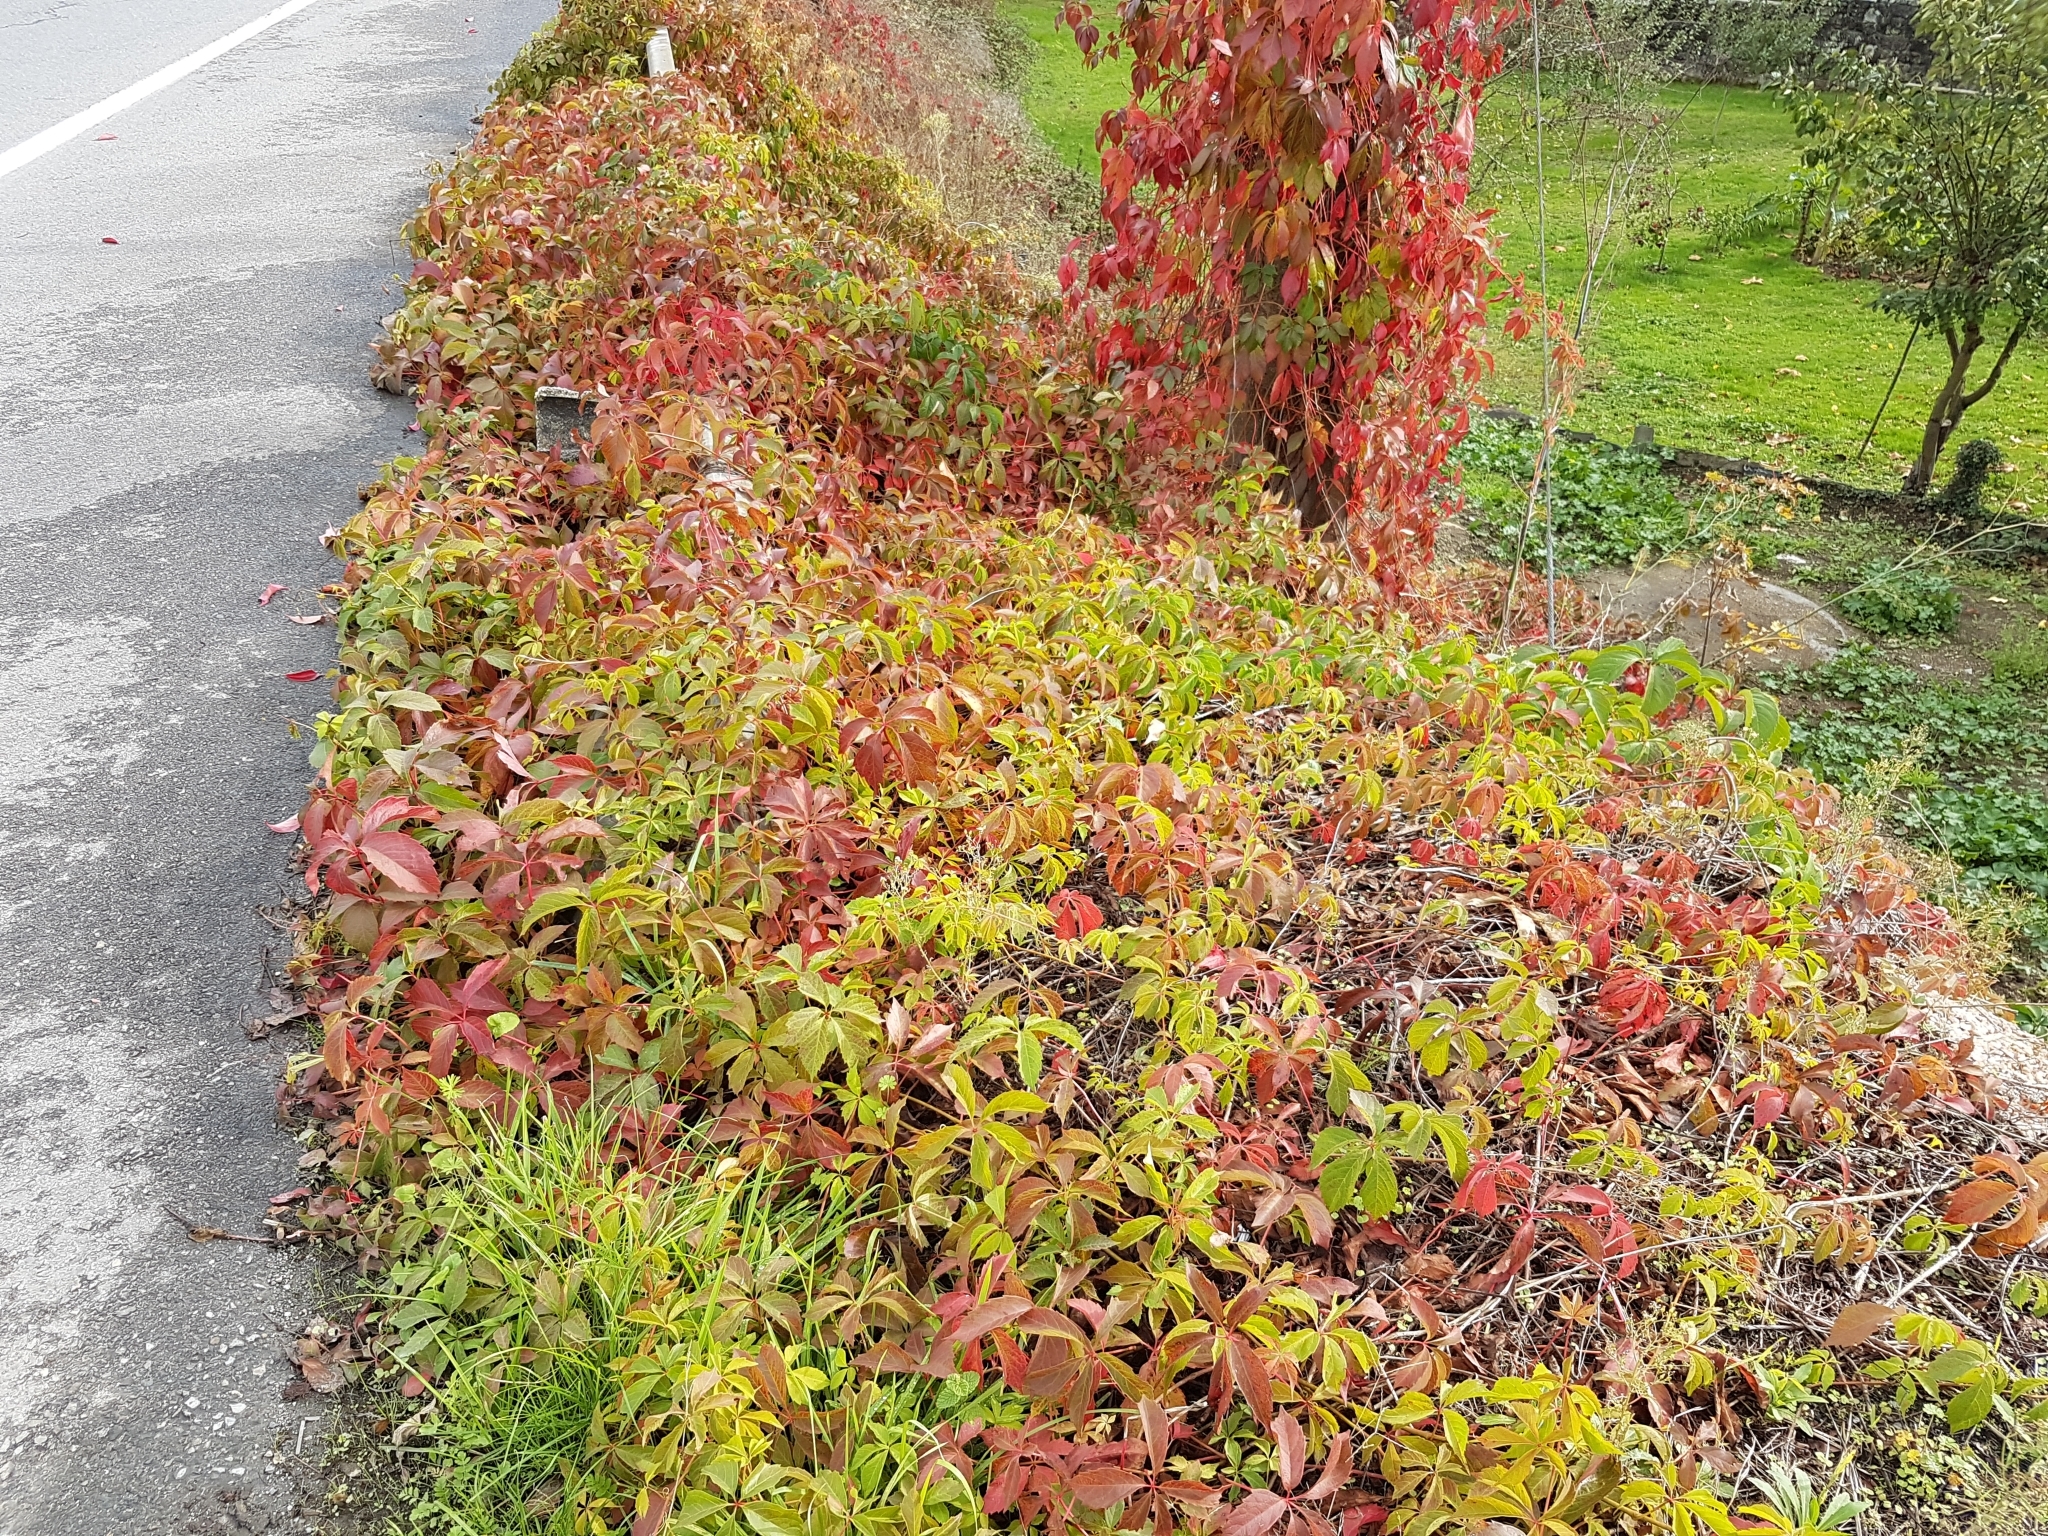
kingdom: Plantae
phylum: Tracheophyta
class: Magnoliopsida
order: Vitales
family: Vitaceae
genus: Parthenocissus
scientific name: Parthenocissus quinquefolia
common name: Virginia-creeper
